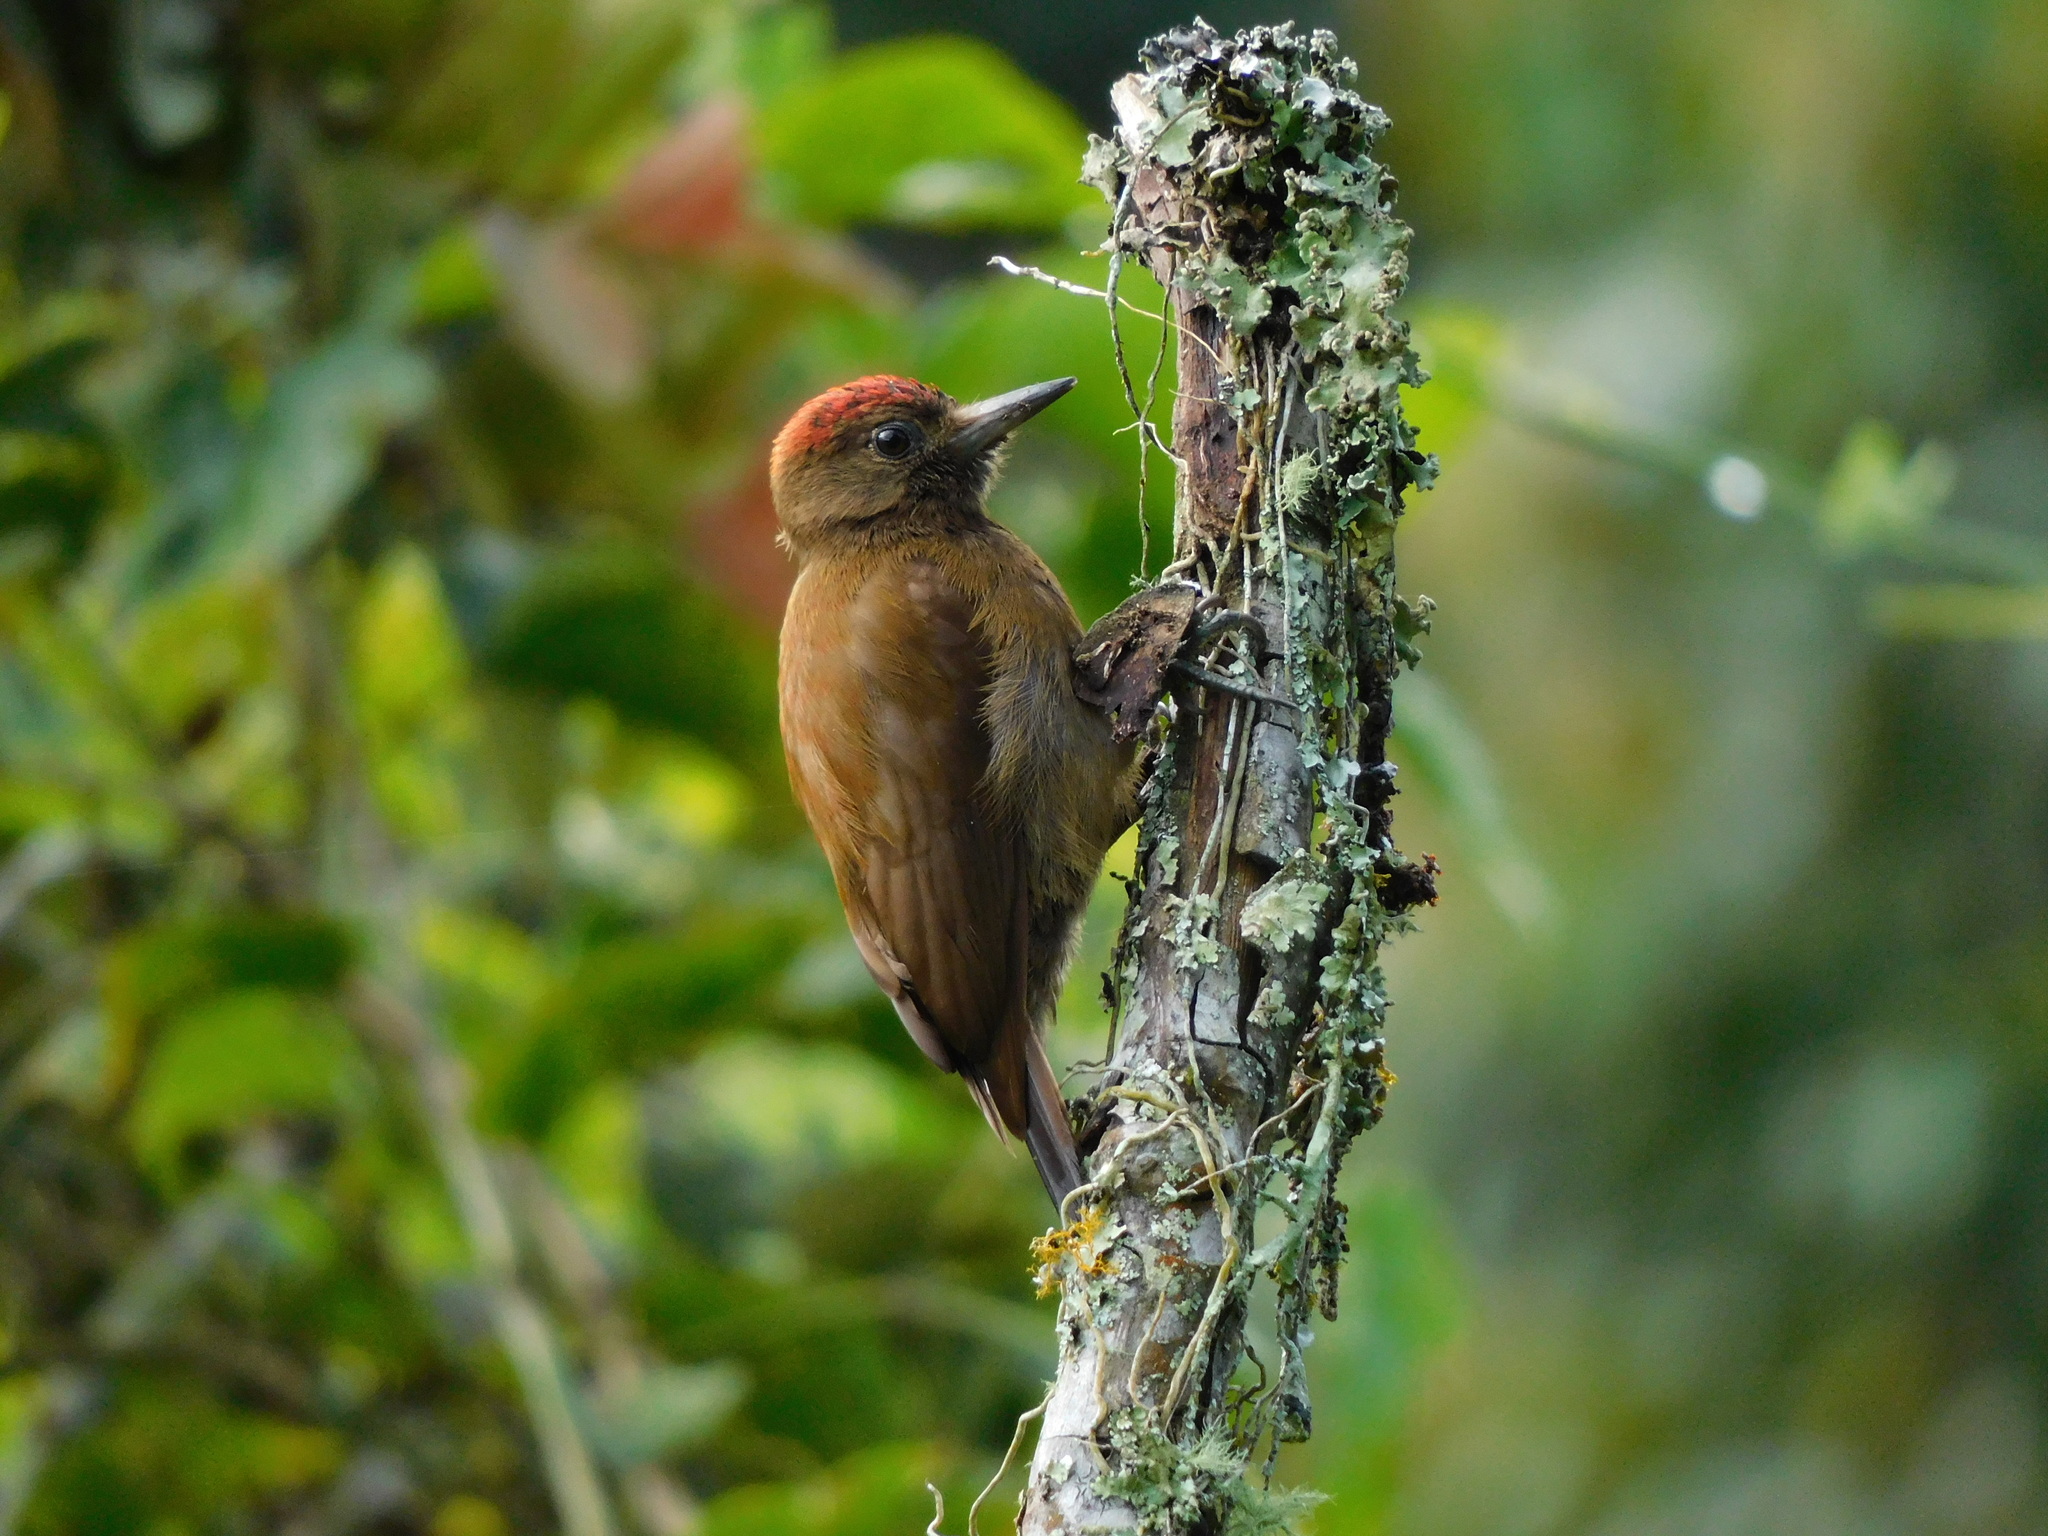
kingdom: Animalia
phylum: Chordata
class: Aves
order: Piciformes
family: Picidae
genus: Leuconotopicus
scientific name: Leuconotopicus fumigatus
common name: Smoky-brown woodpecker
